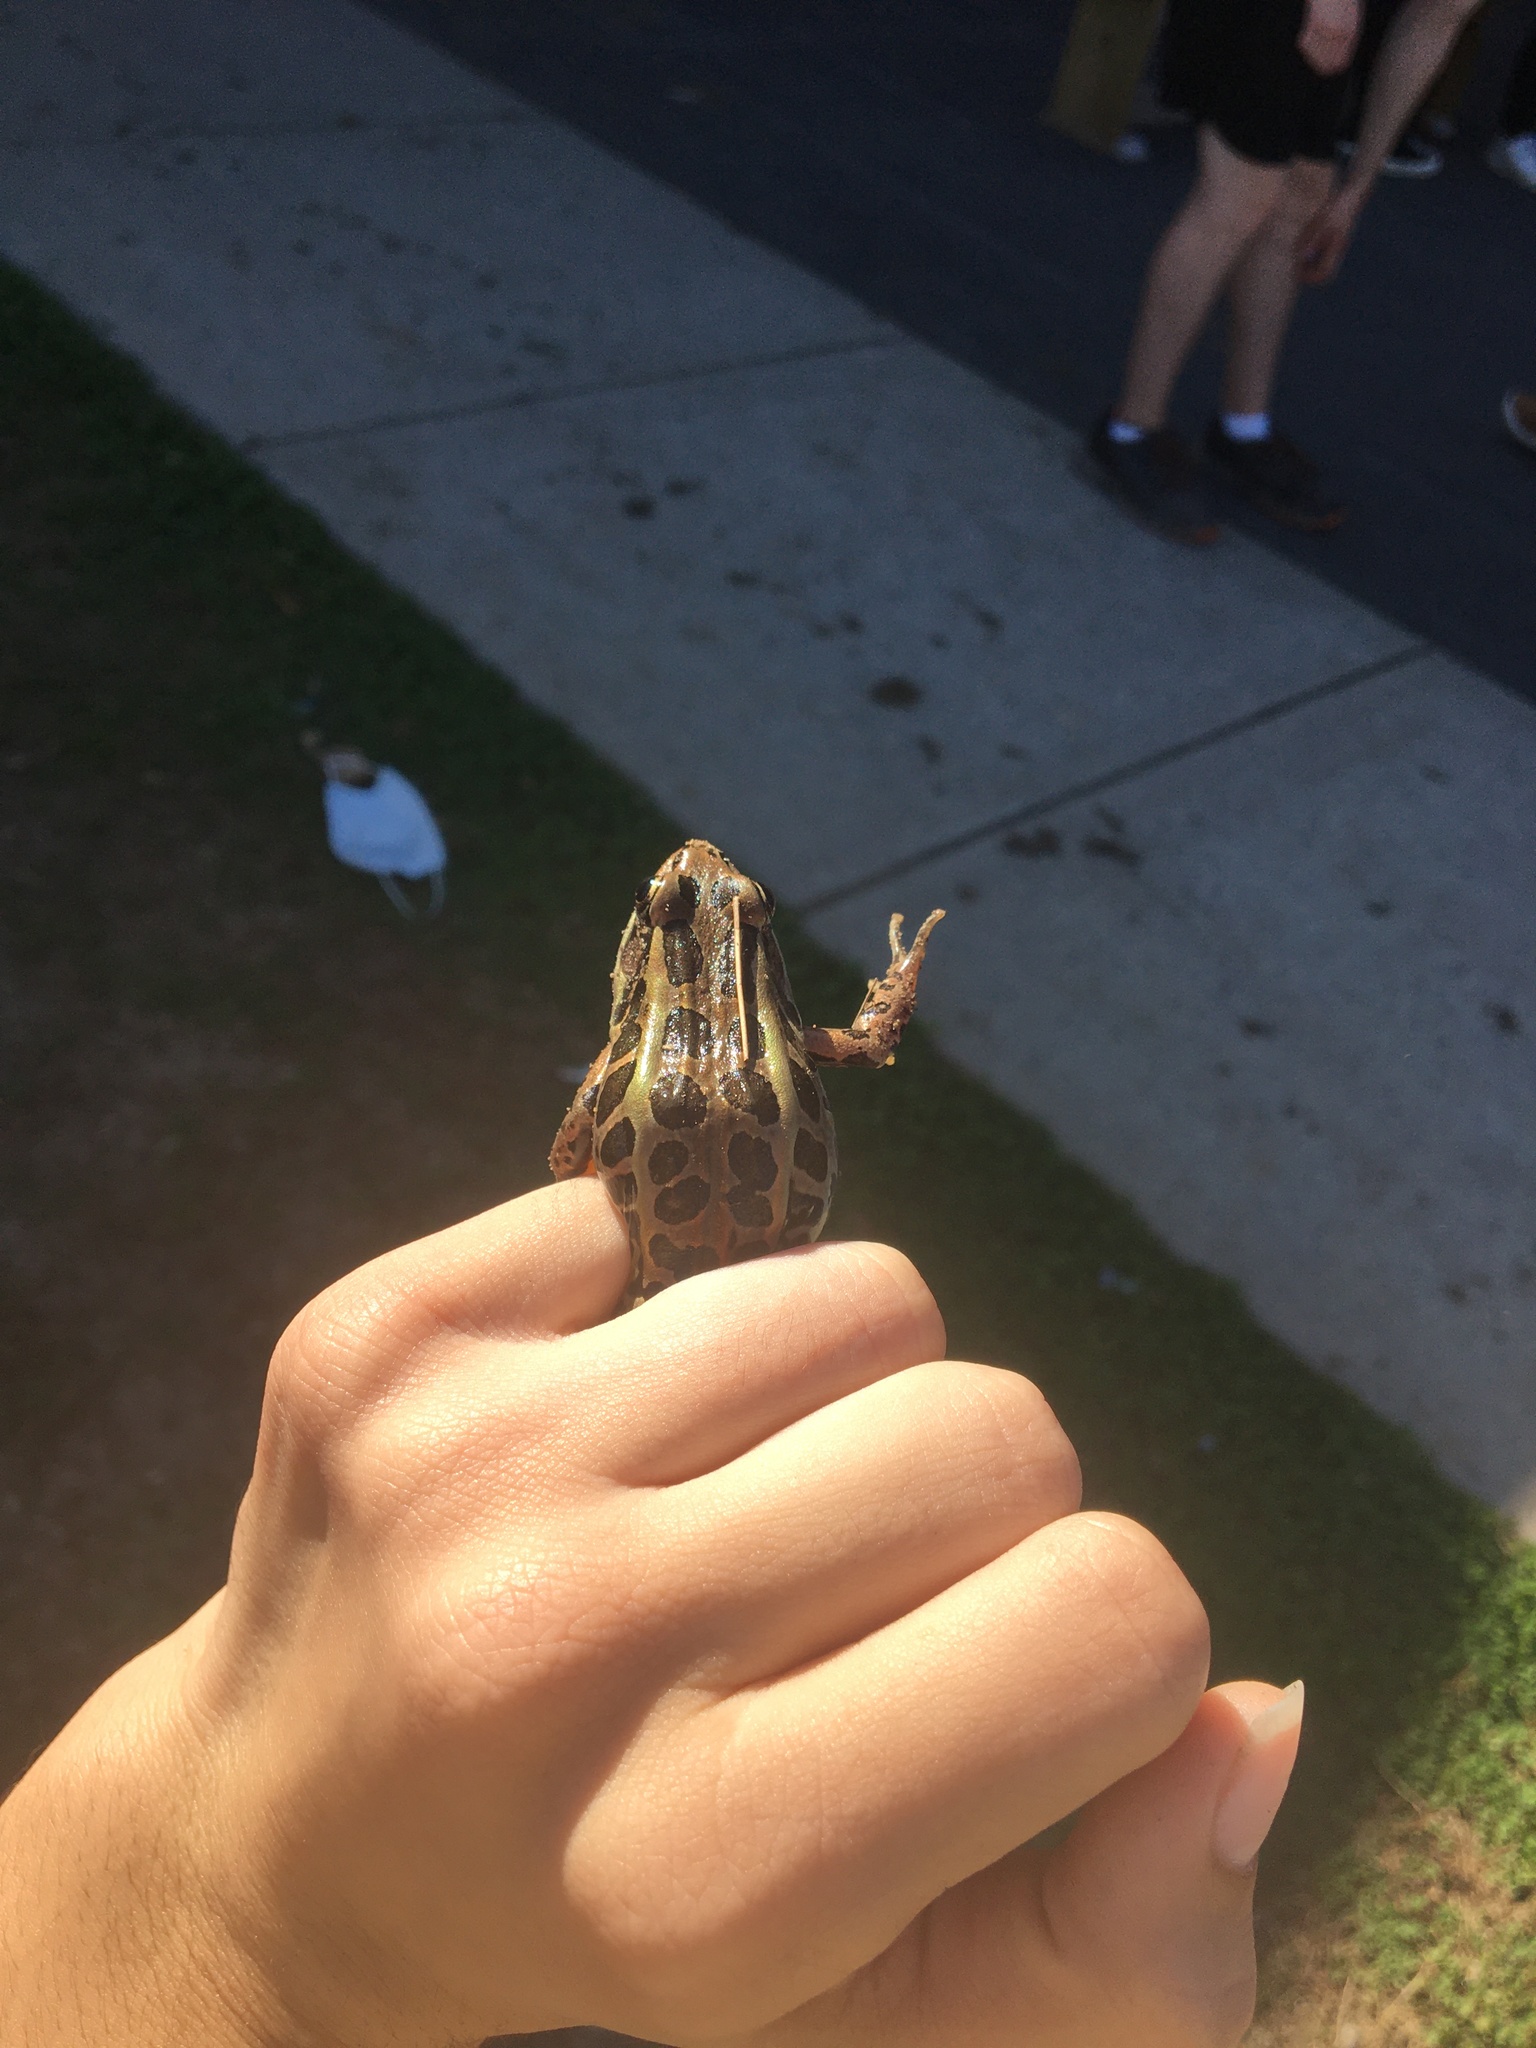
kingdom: Animalia
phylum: Chordata
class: Amphibia
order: Anura
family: Ranidae
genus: Lithobates
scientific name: Lithobates palustris
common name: Pickerel frog
